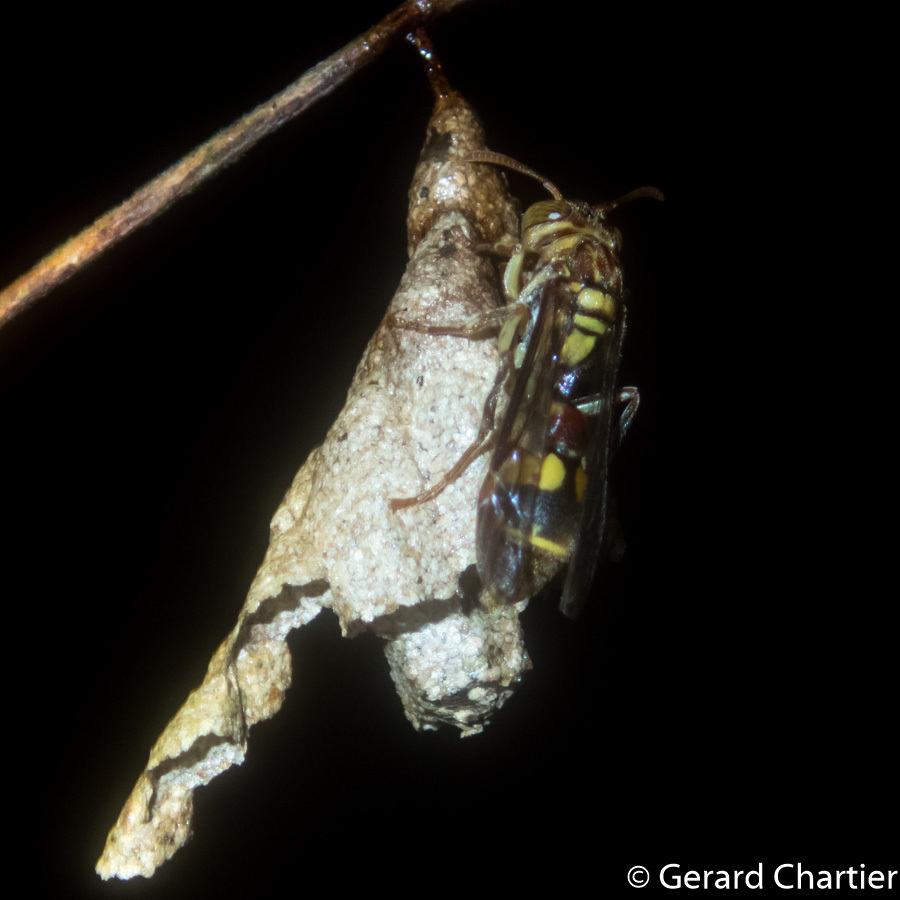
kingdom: Animalia
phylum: Arthropoda
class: Insecta
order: Hymenoptera
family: Vespidae
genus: Ropalidia
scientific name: Ropalidia stigma
